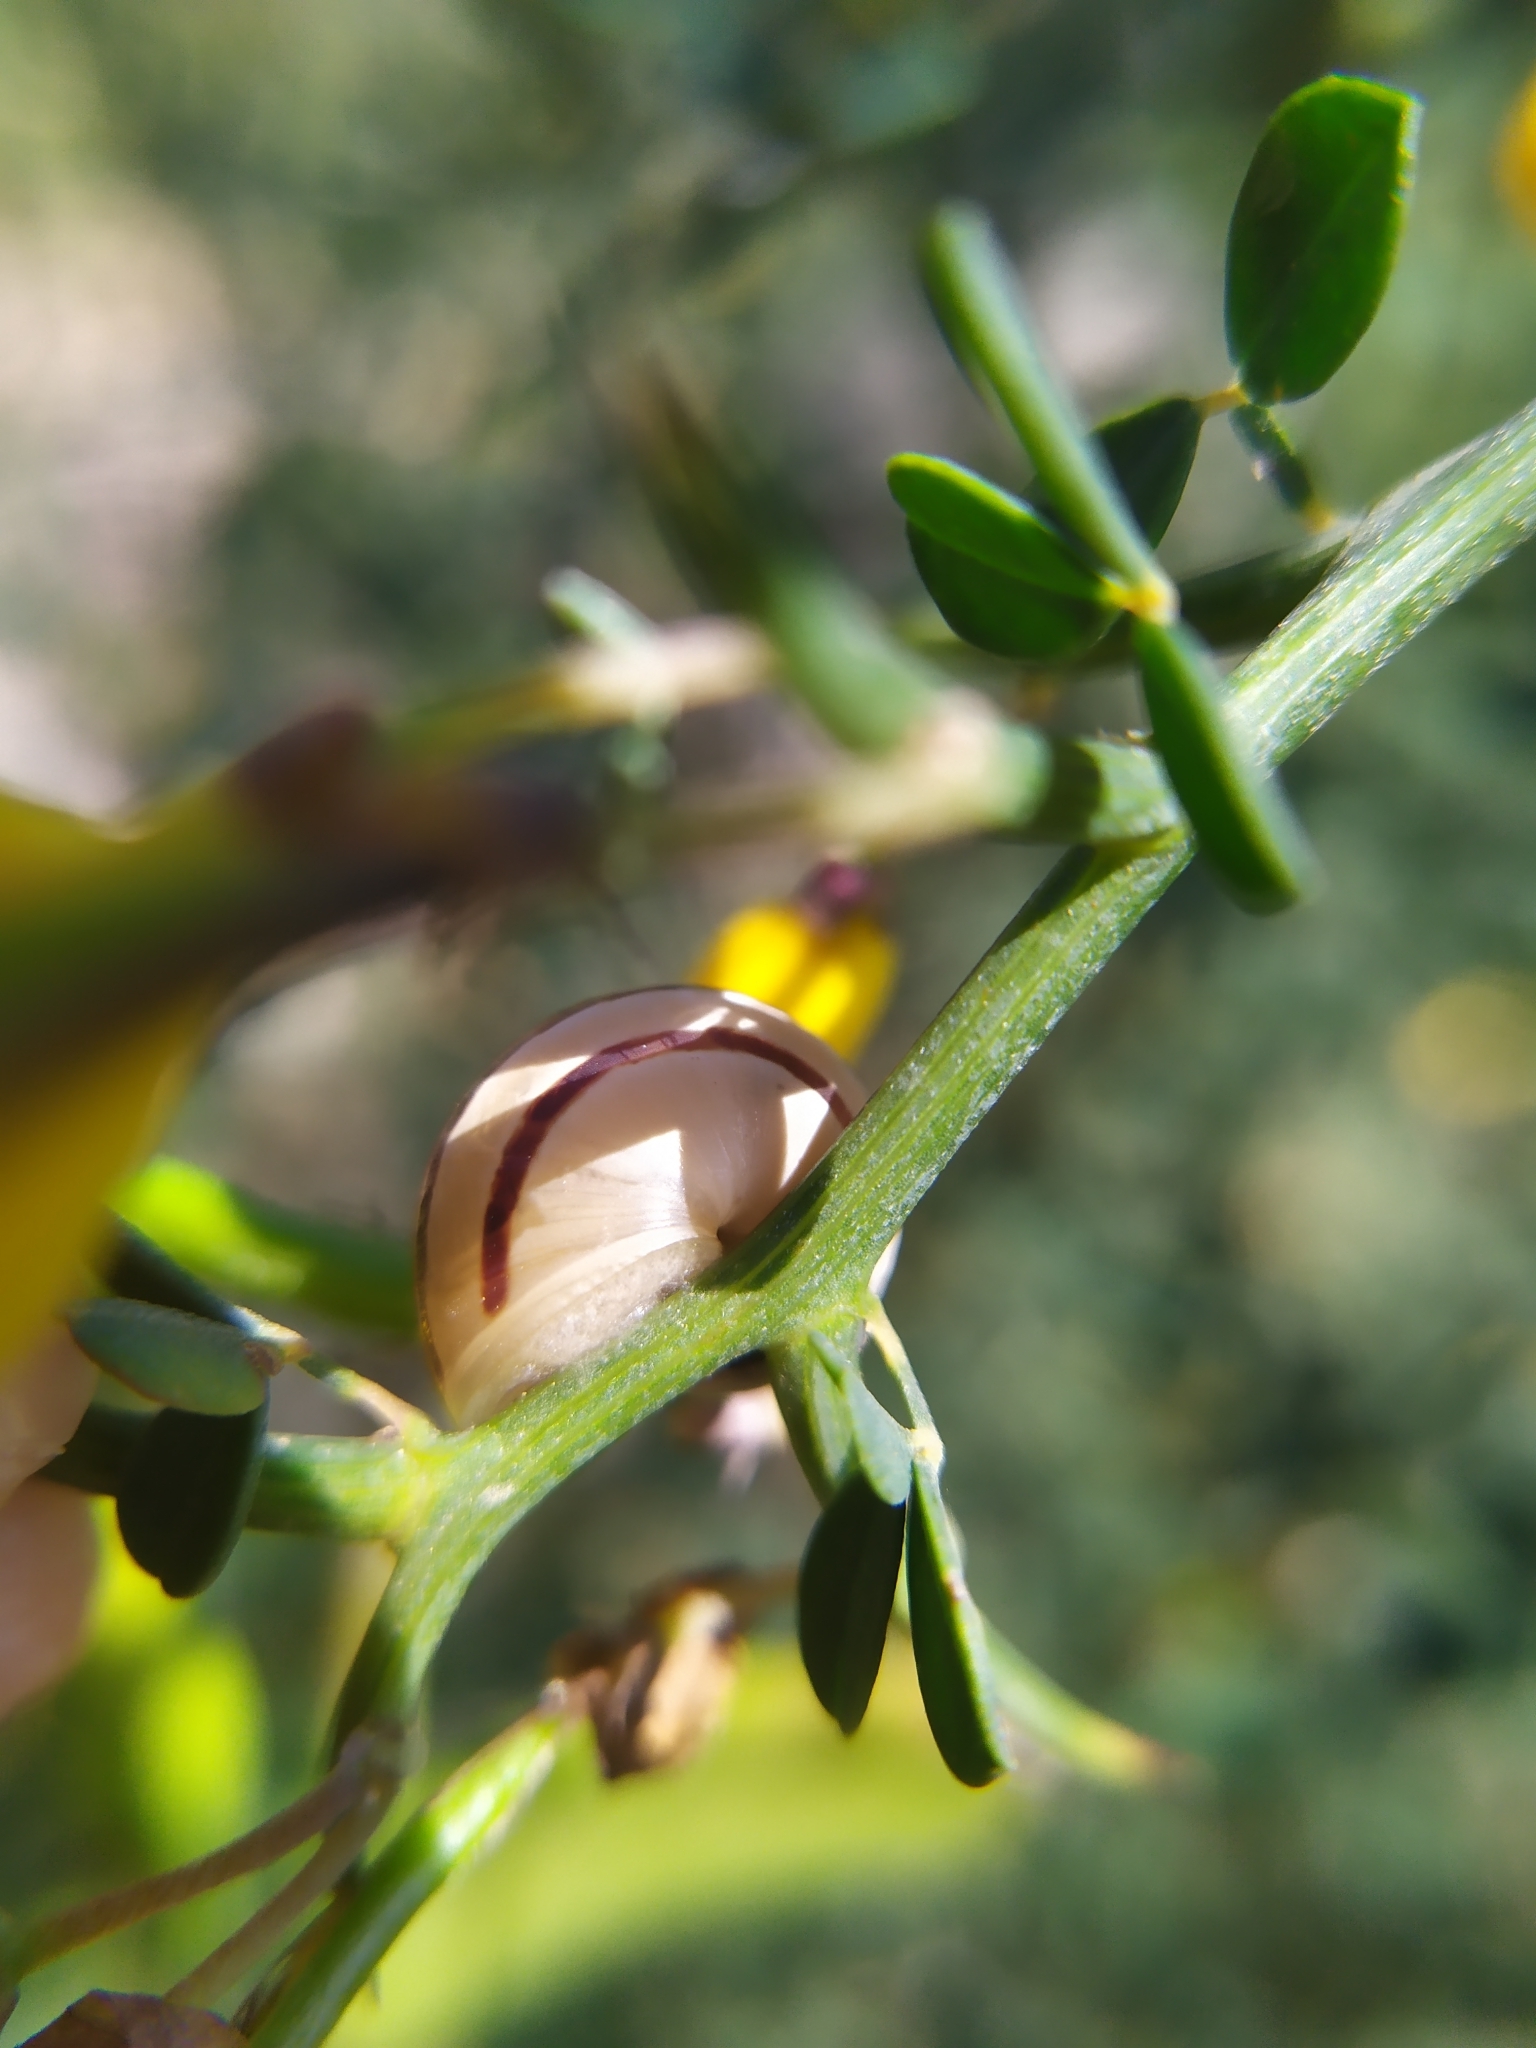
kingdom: Animalia
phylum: Mollusca
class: Gastropoda
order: Stylommatophora
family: Helicidae
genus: Pseudotachea
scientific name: Pseudotachea splendida
